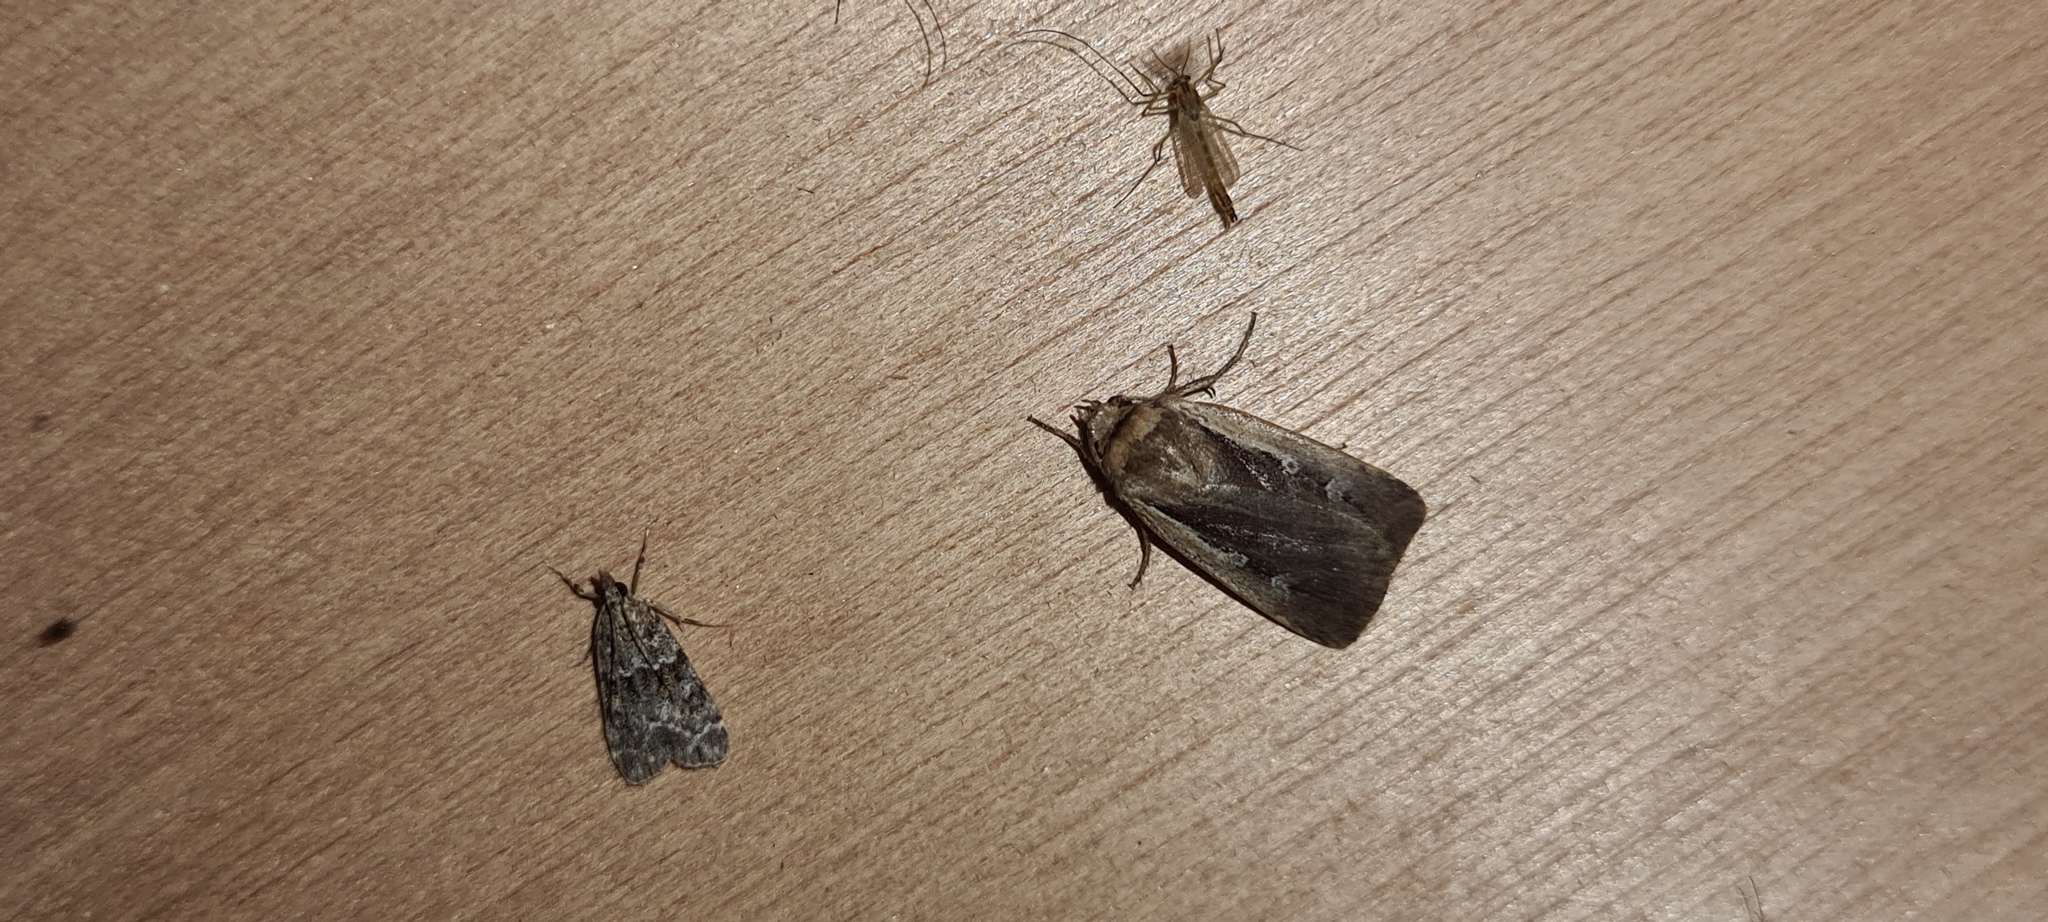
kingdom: Animalia
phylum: Arthropoda
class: Insecta
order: Lepidoptera
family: Noctuidae
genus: Ochropleura
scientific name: Ochropleura plecta
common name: Flame shoulder
